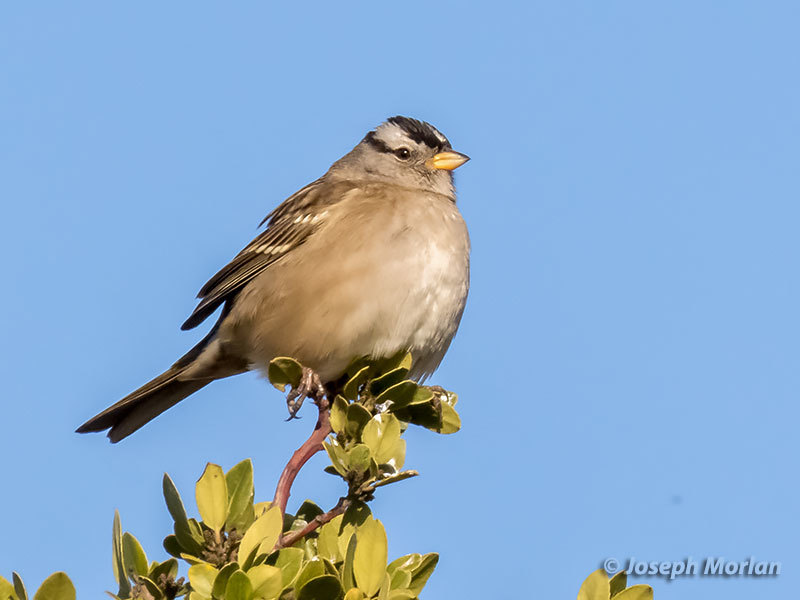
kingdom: Animalia
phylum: Chordata
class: Aves
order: Passeriformes
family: Passerellidae
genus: Zonotrichia
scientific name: Zonotrichia leucophrys
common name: White-crowned sparrow
